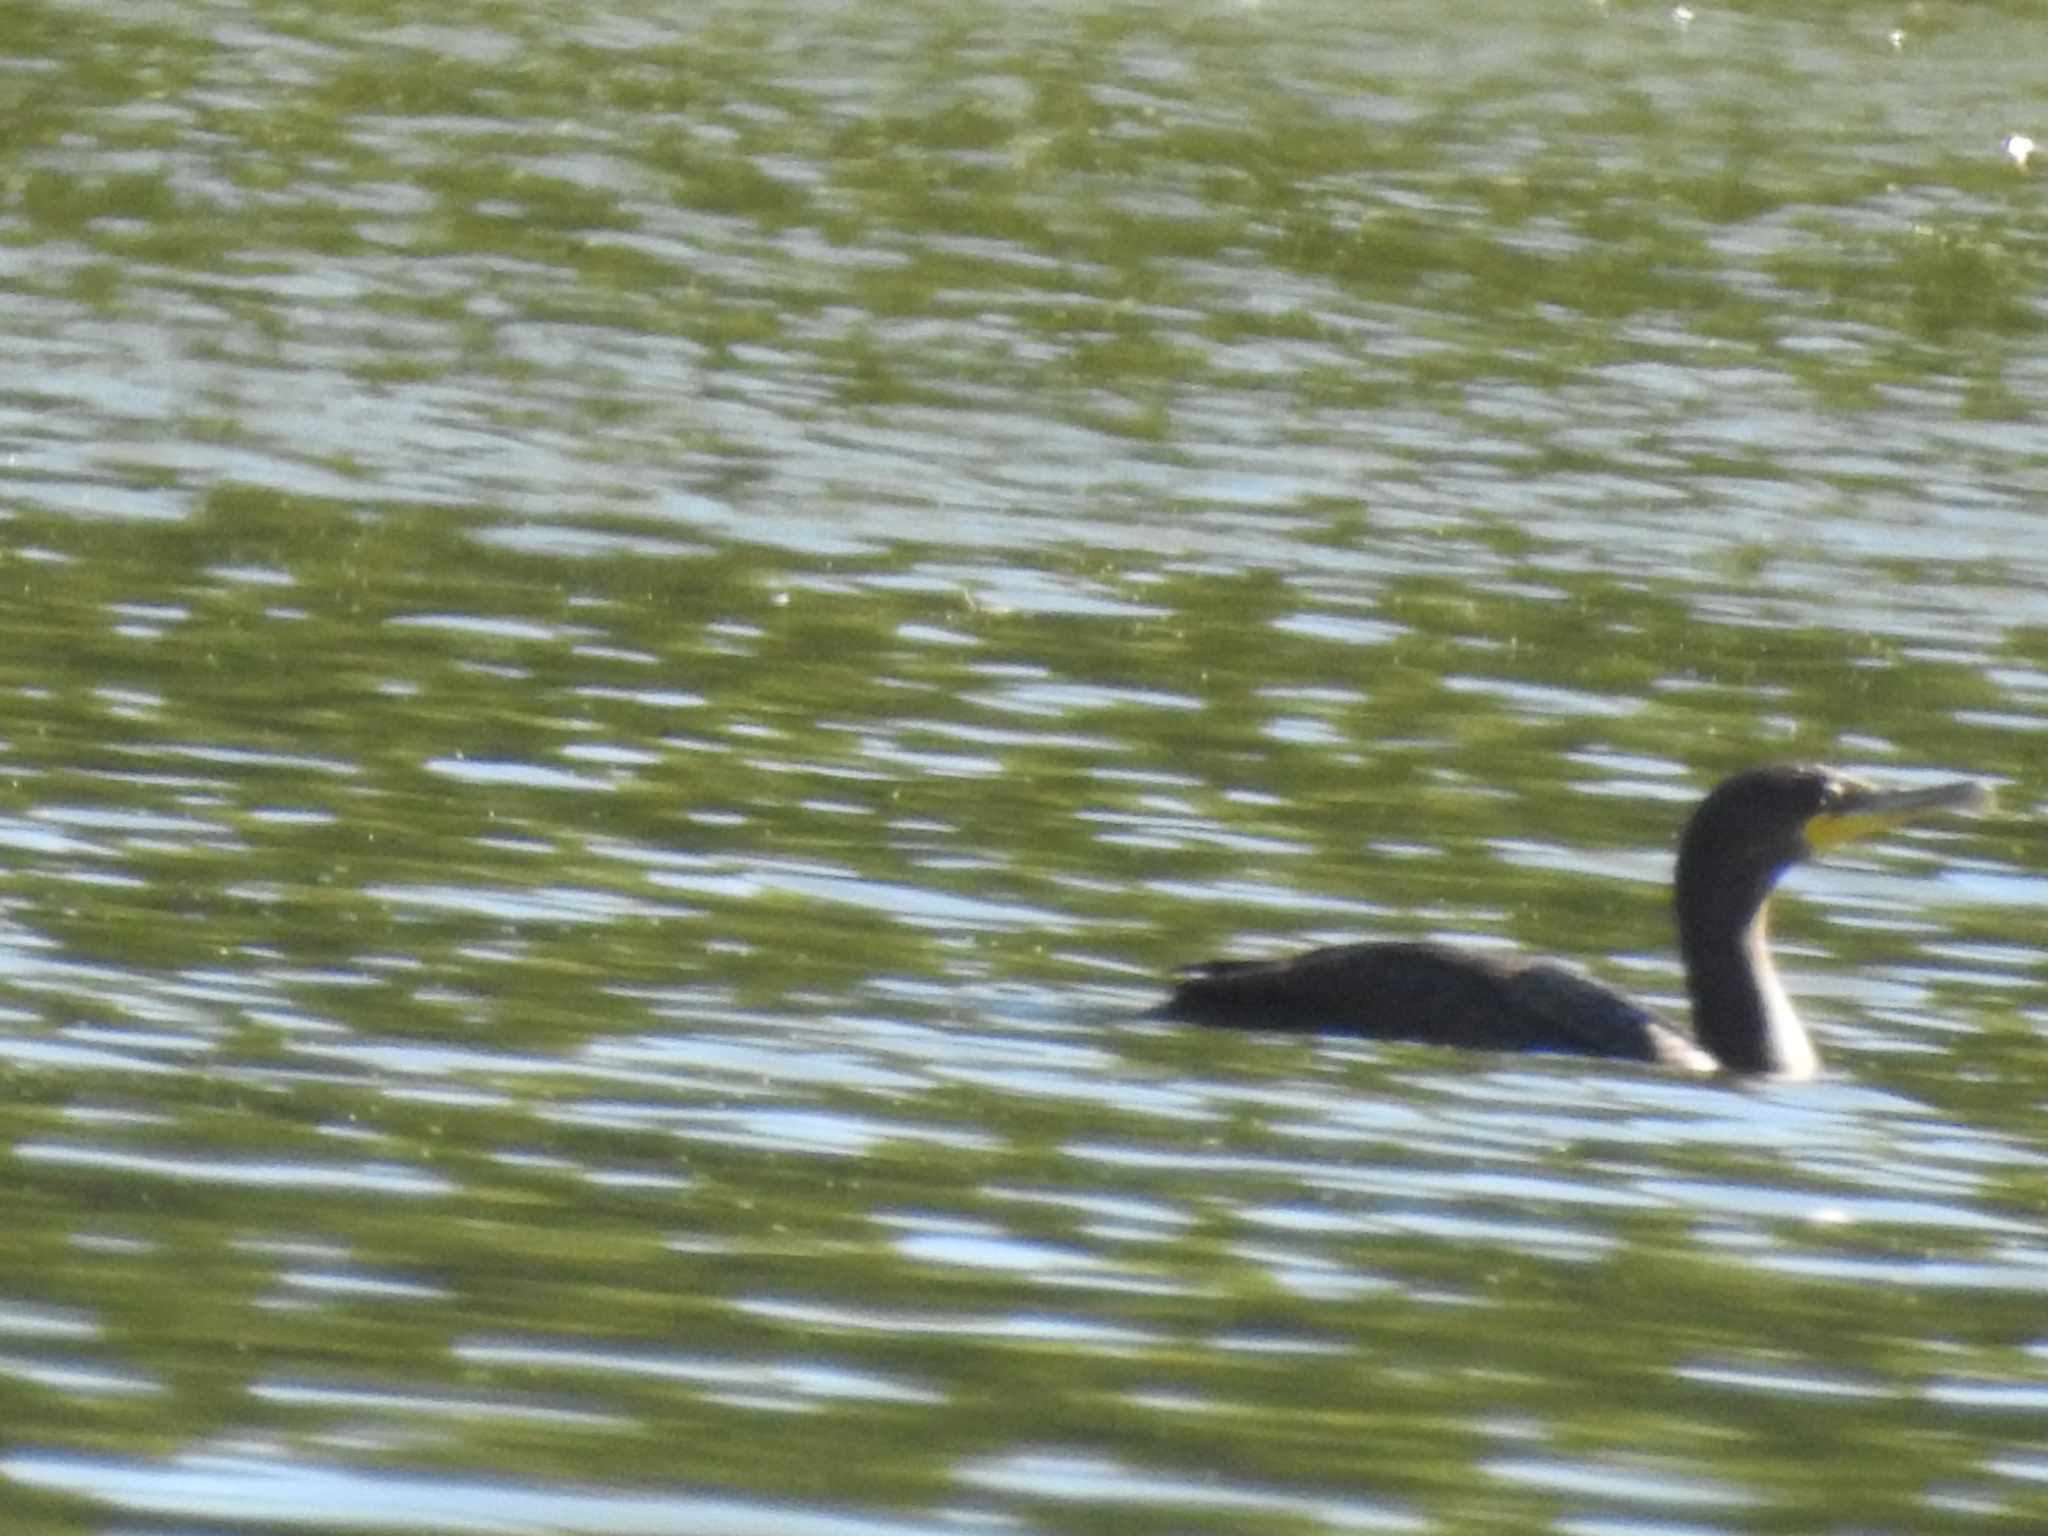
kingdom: Animalia
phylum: Chordata
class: Aves
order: Suliformes
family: Phalacrocoracidae
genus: Phalacrocorax
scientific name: Phalacrocorax auritus
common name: Double-crested cormorant
